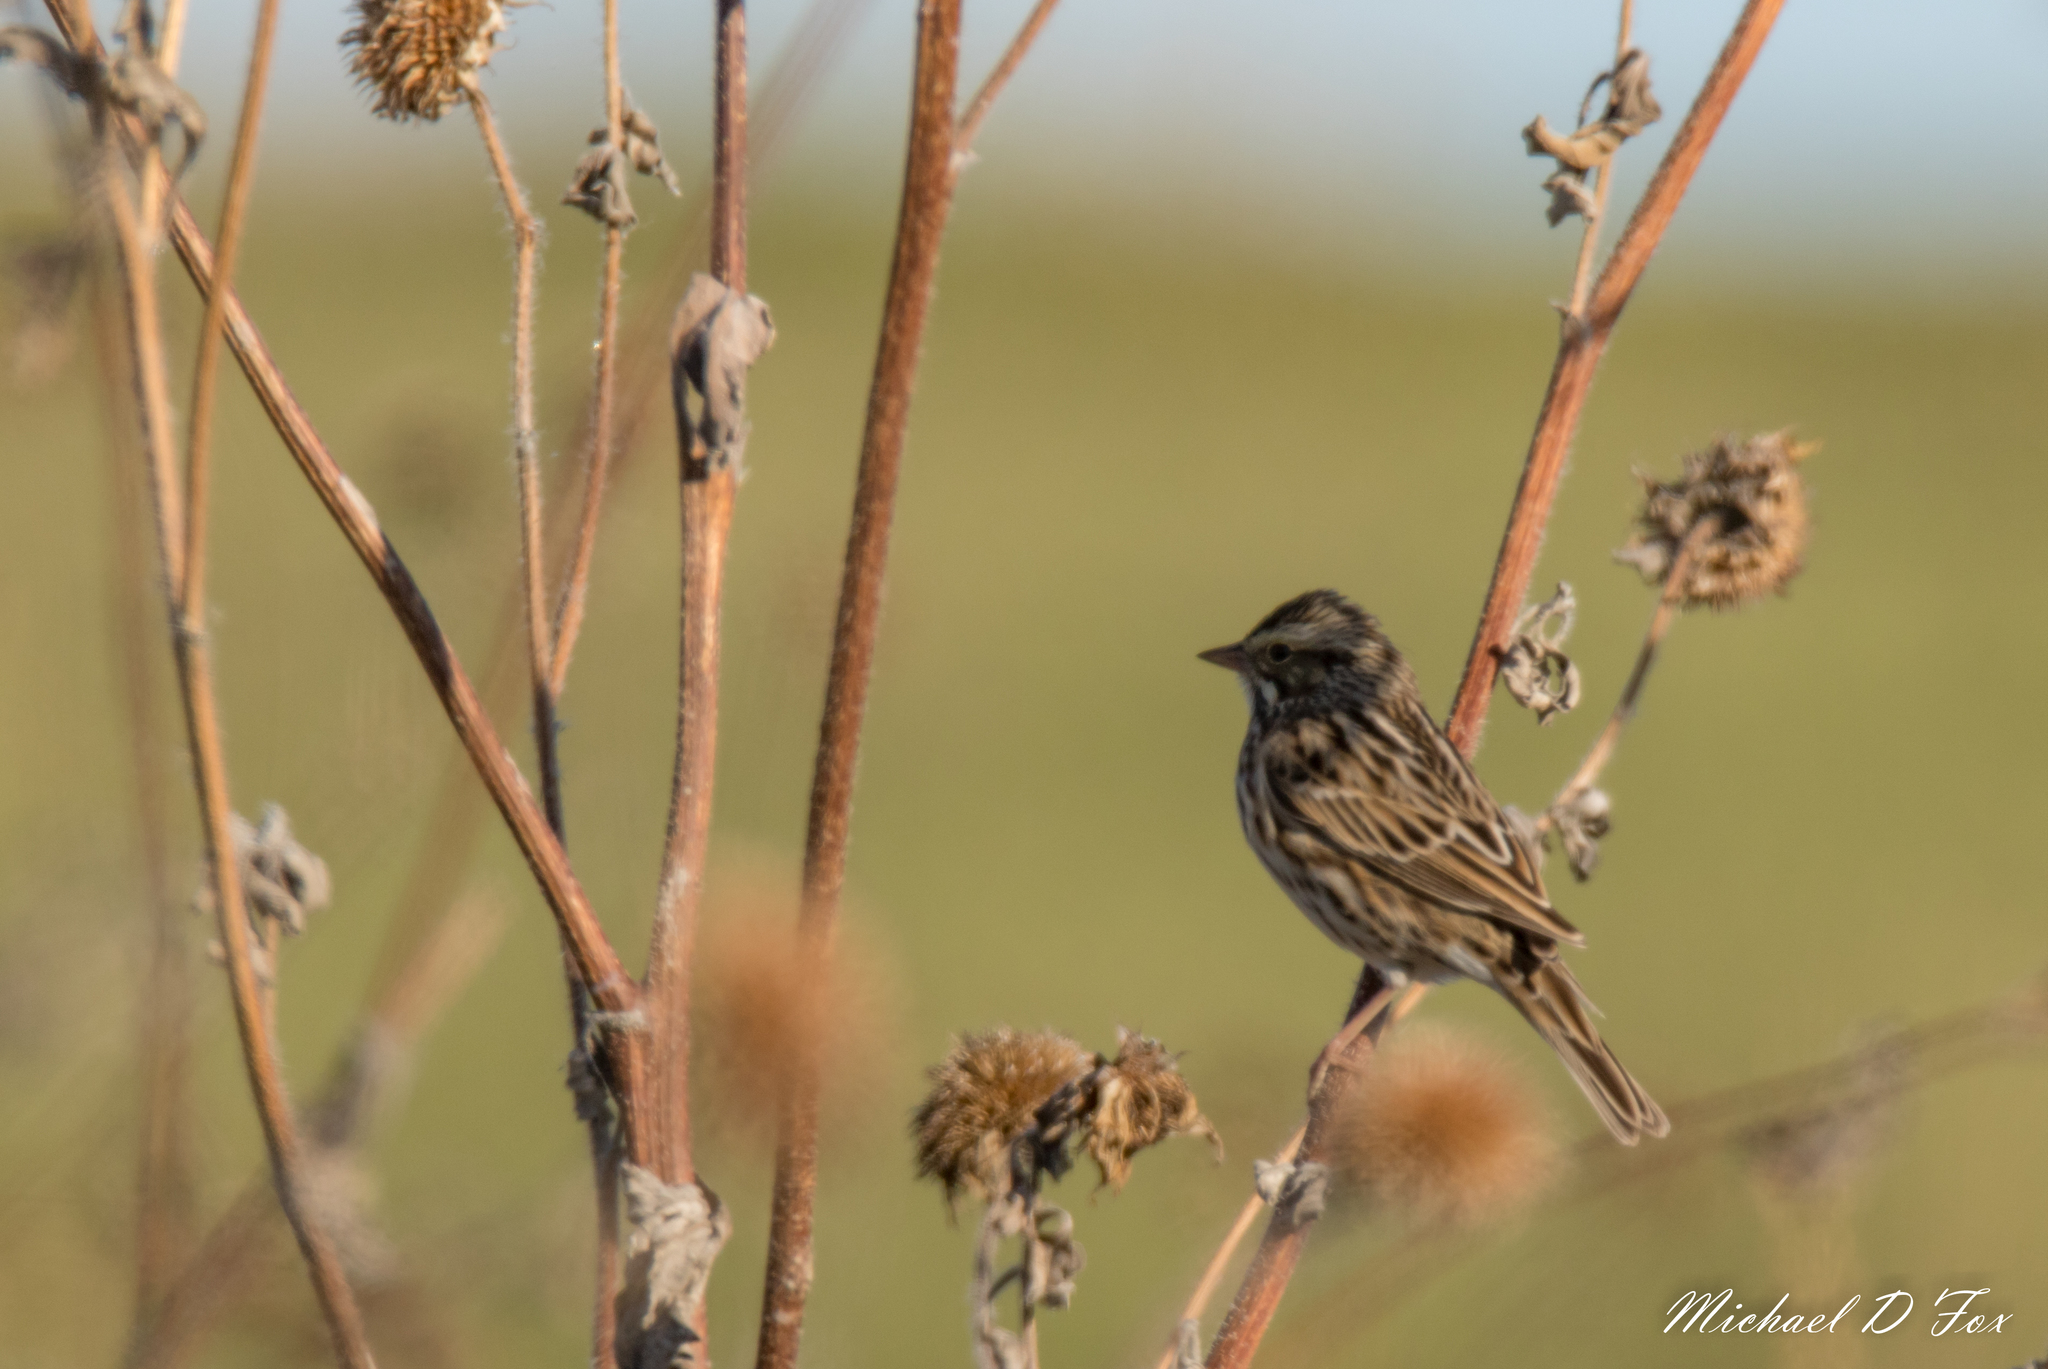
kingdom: Animalia
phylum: Chordata
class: Aves
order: Passeriformes
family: Passerellidae
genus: Passerculus
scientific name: Passerculus sandwichensis
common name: Savannah sparrow
